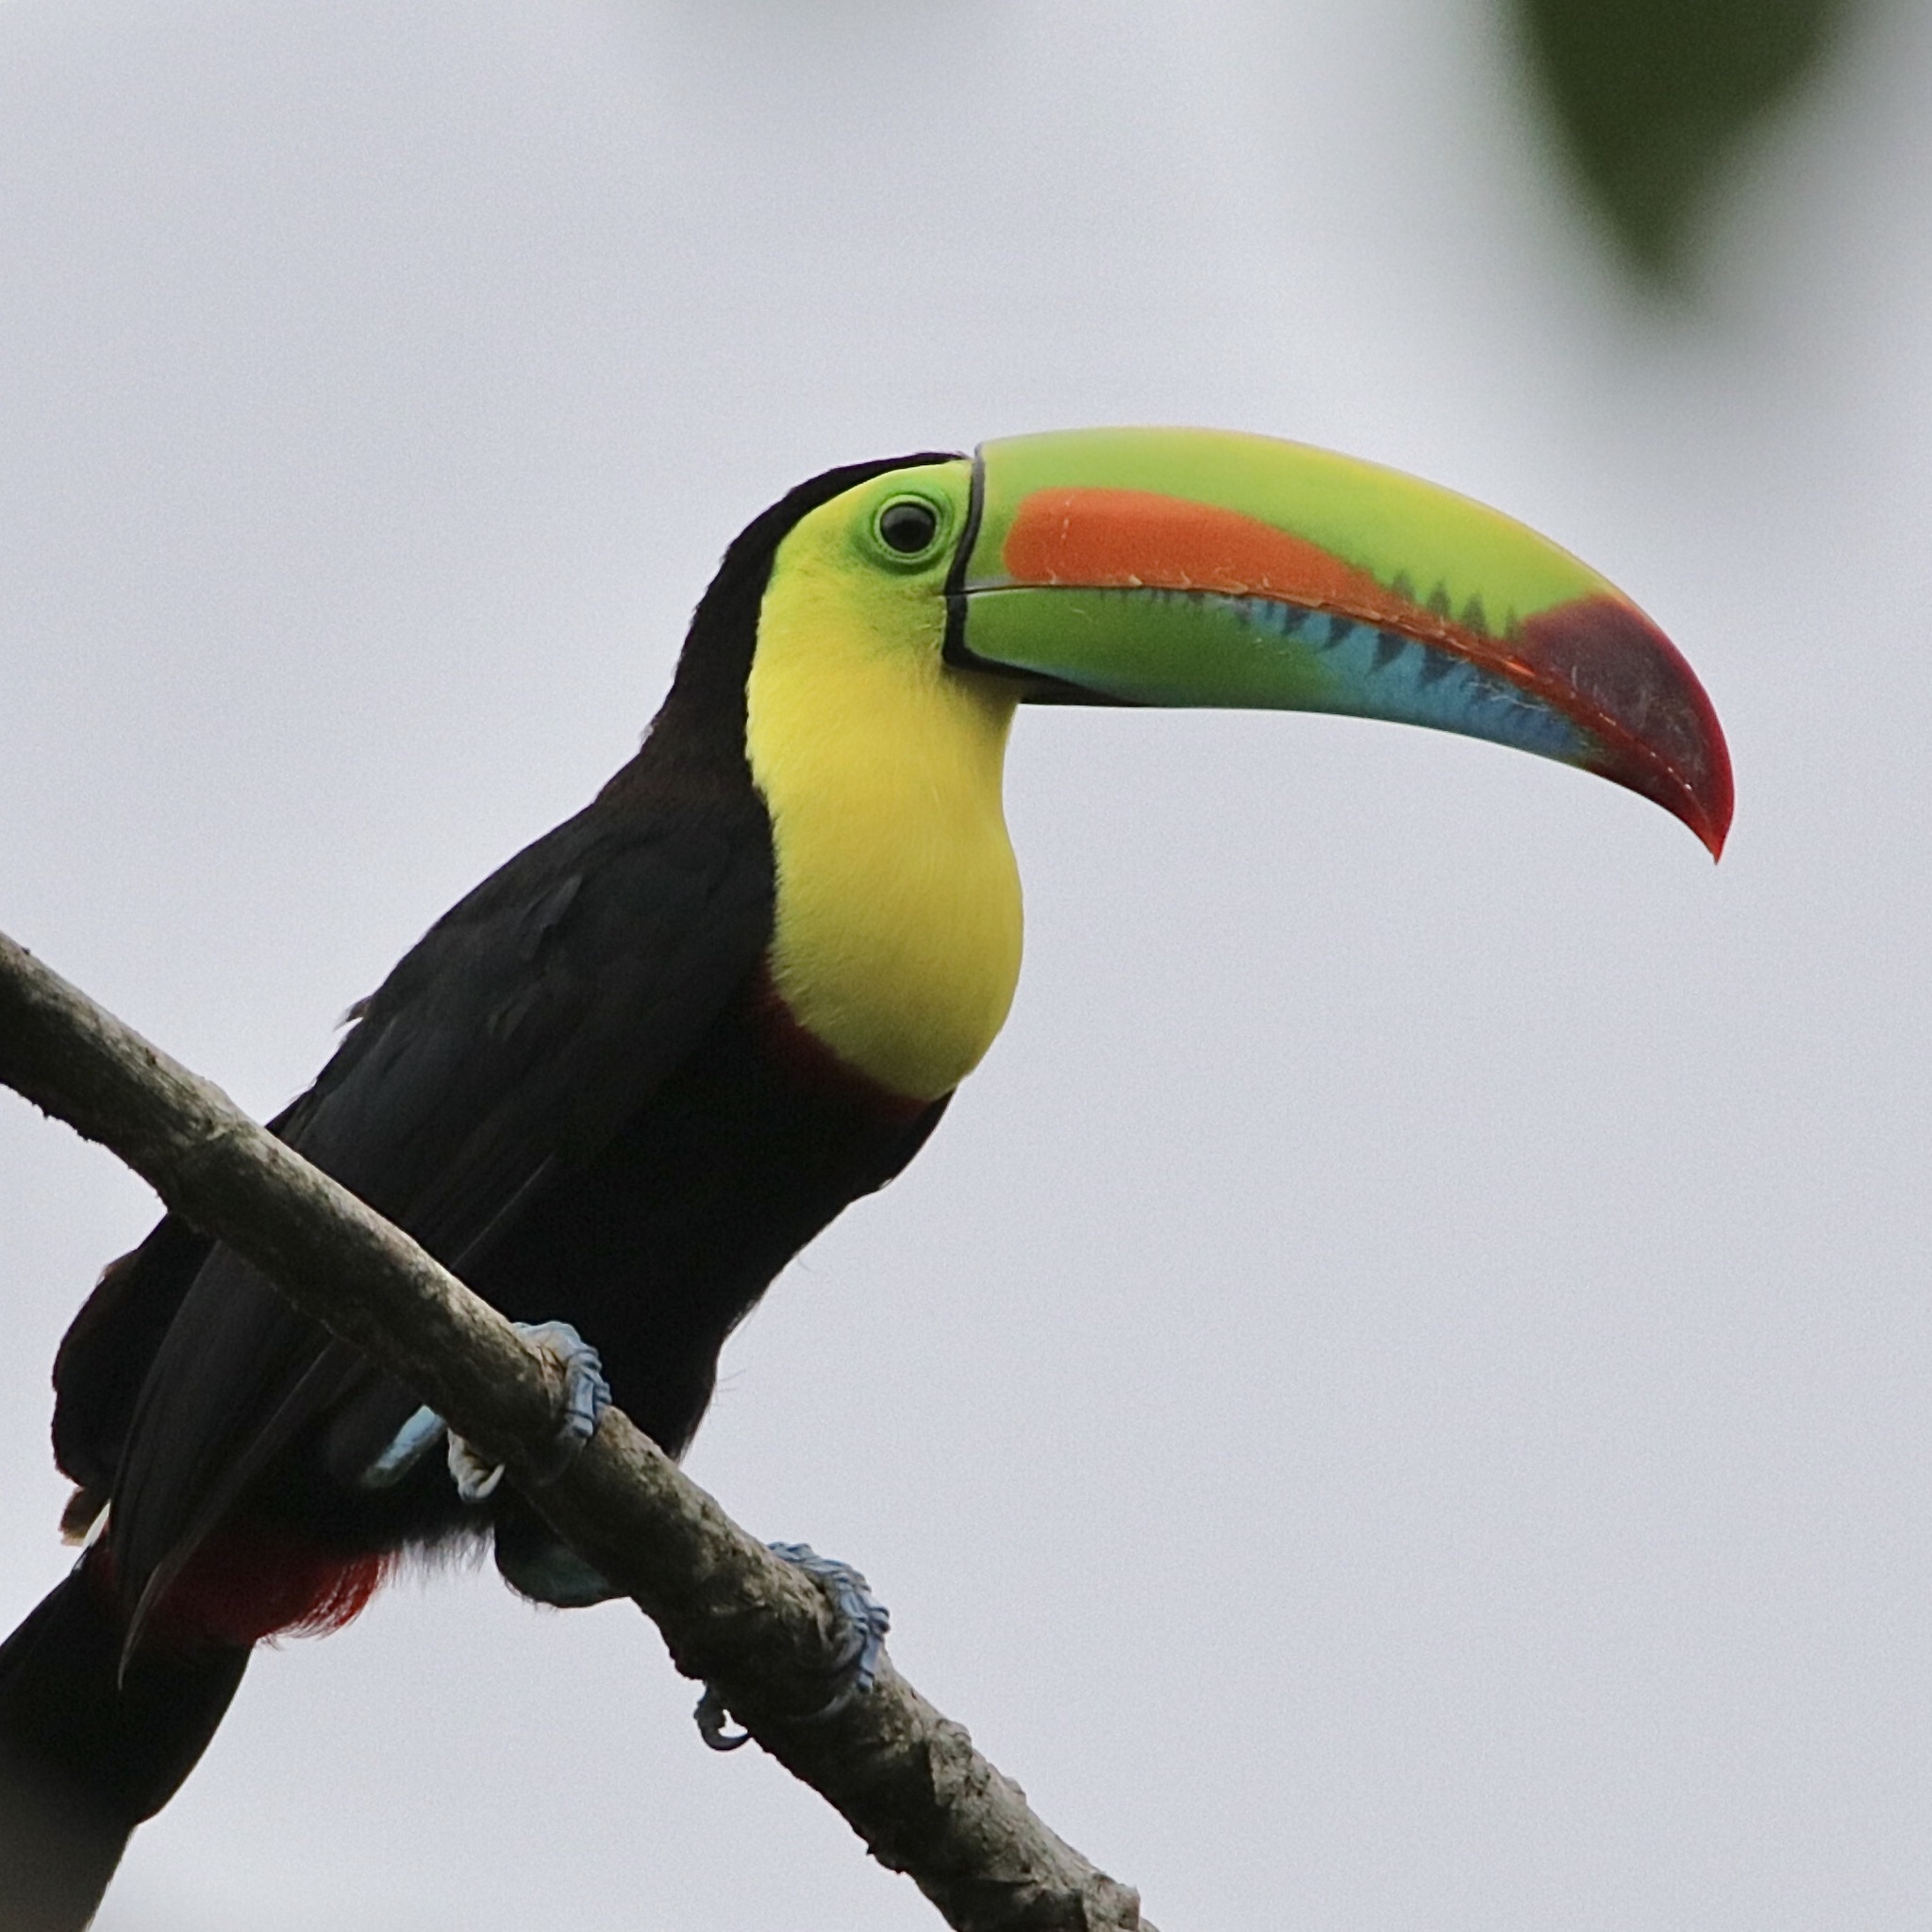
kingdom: Animalia
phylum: Chordata
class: Aves
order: Piciformes
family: Ramphastidae
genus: Ramphastos
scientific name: Ramphastos sulfuratus
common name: Keel-billed toucan
